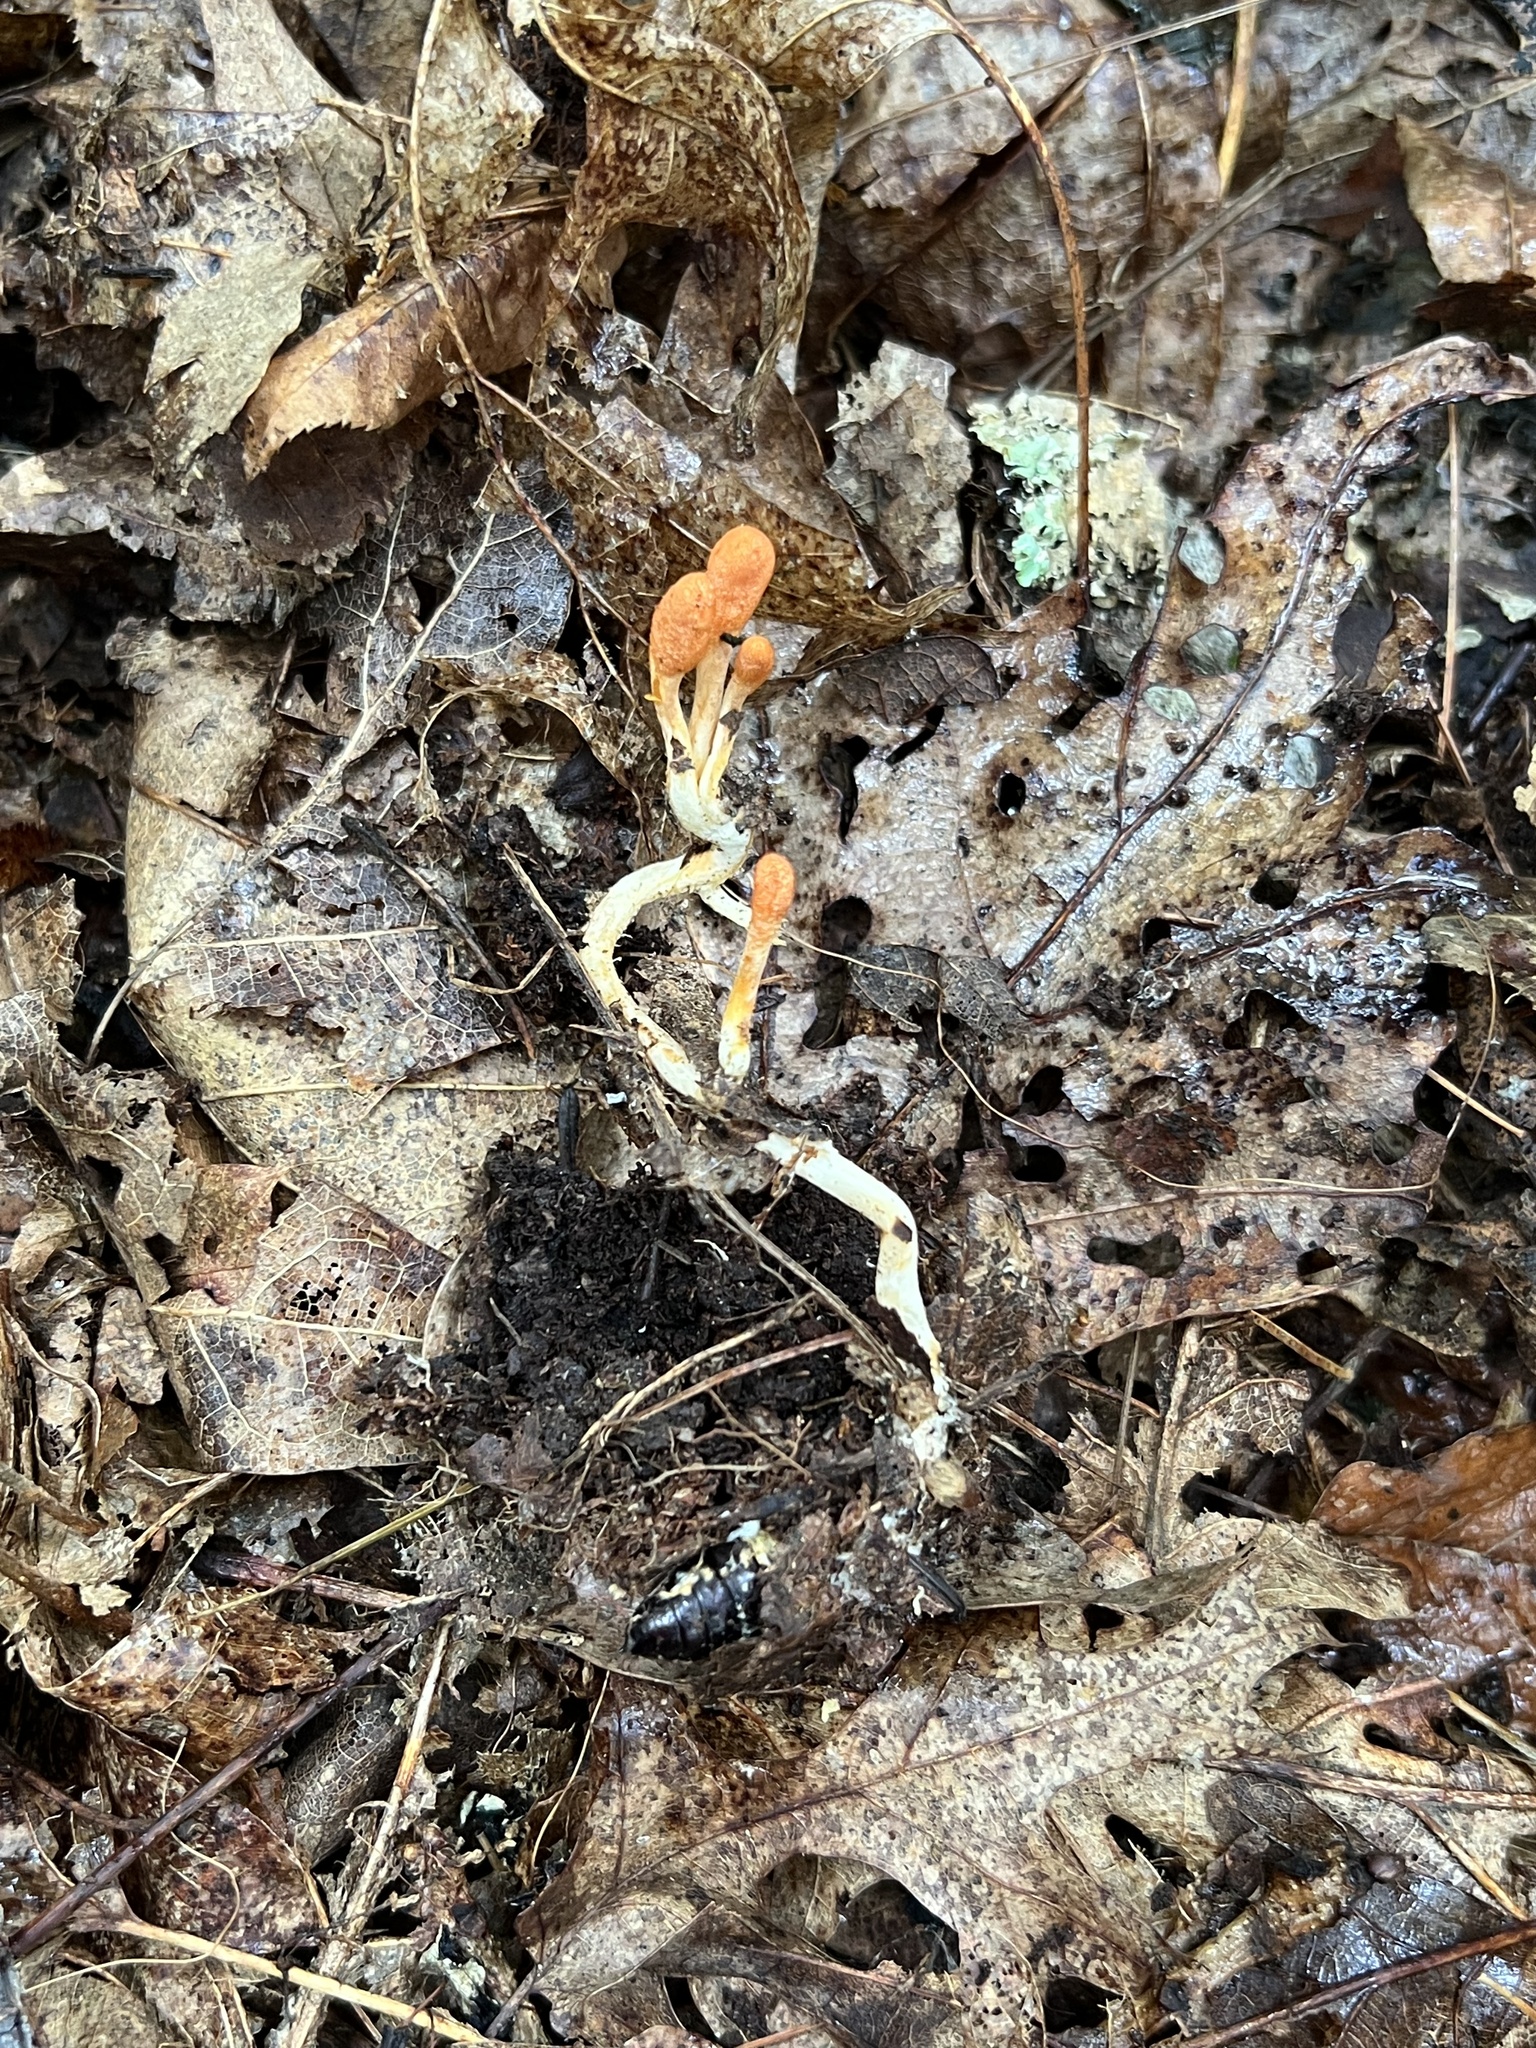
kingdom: Fungi
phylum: Ascomycota
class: Sordariomycetes
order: Hypocreales
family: Cordycipitaceae
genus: Cordyceps
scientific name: Cordyceps militaris
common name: Scarlet caterpillar fungus
